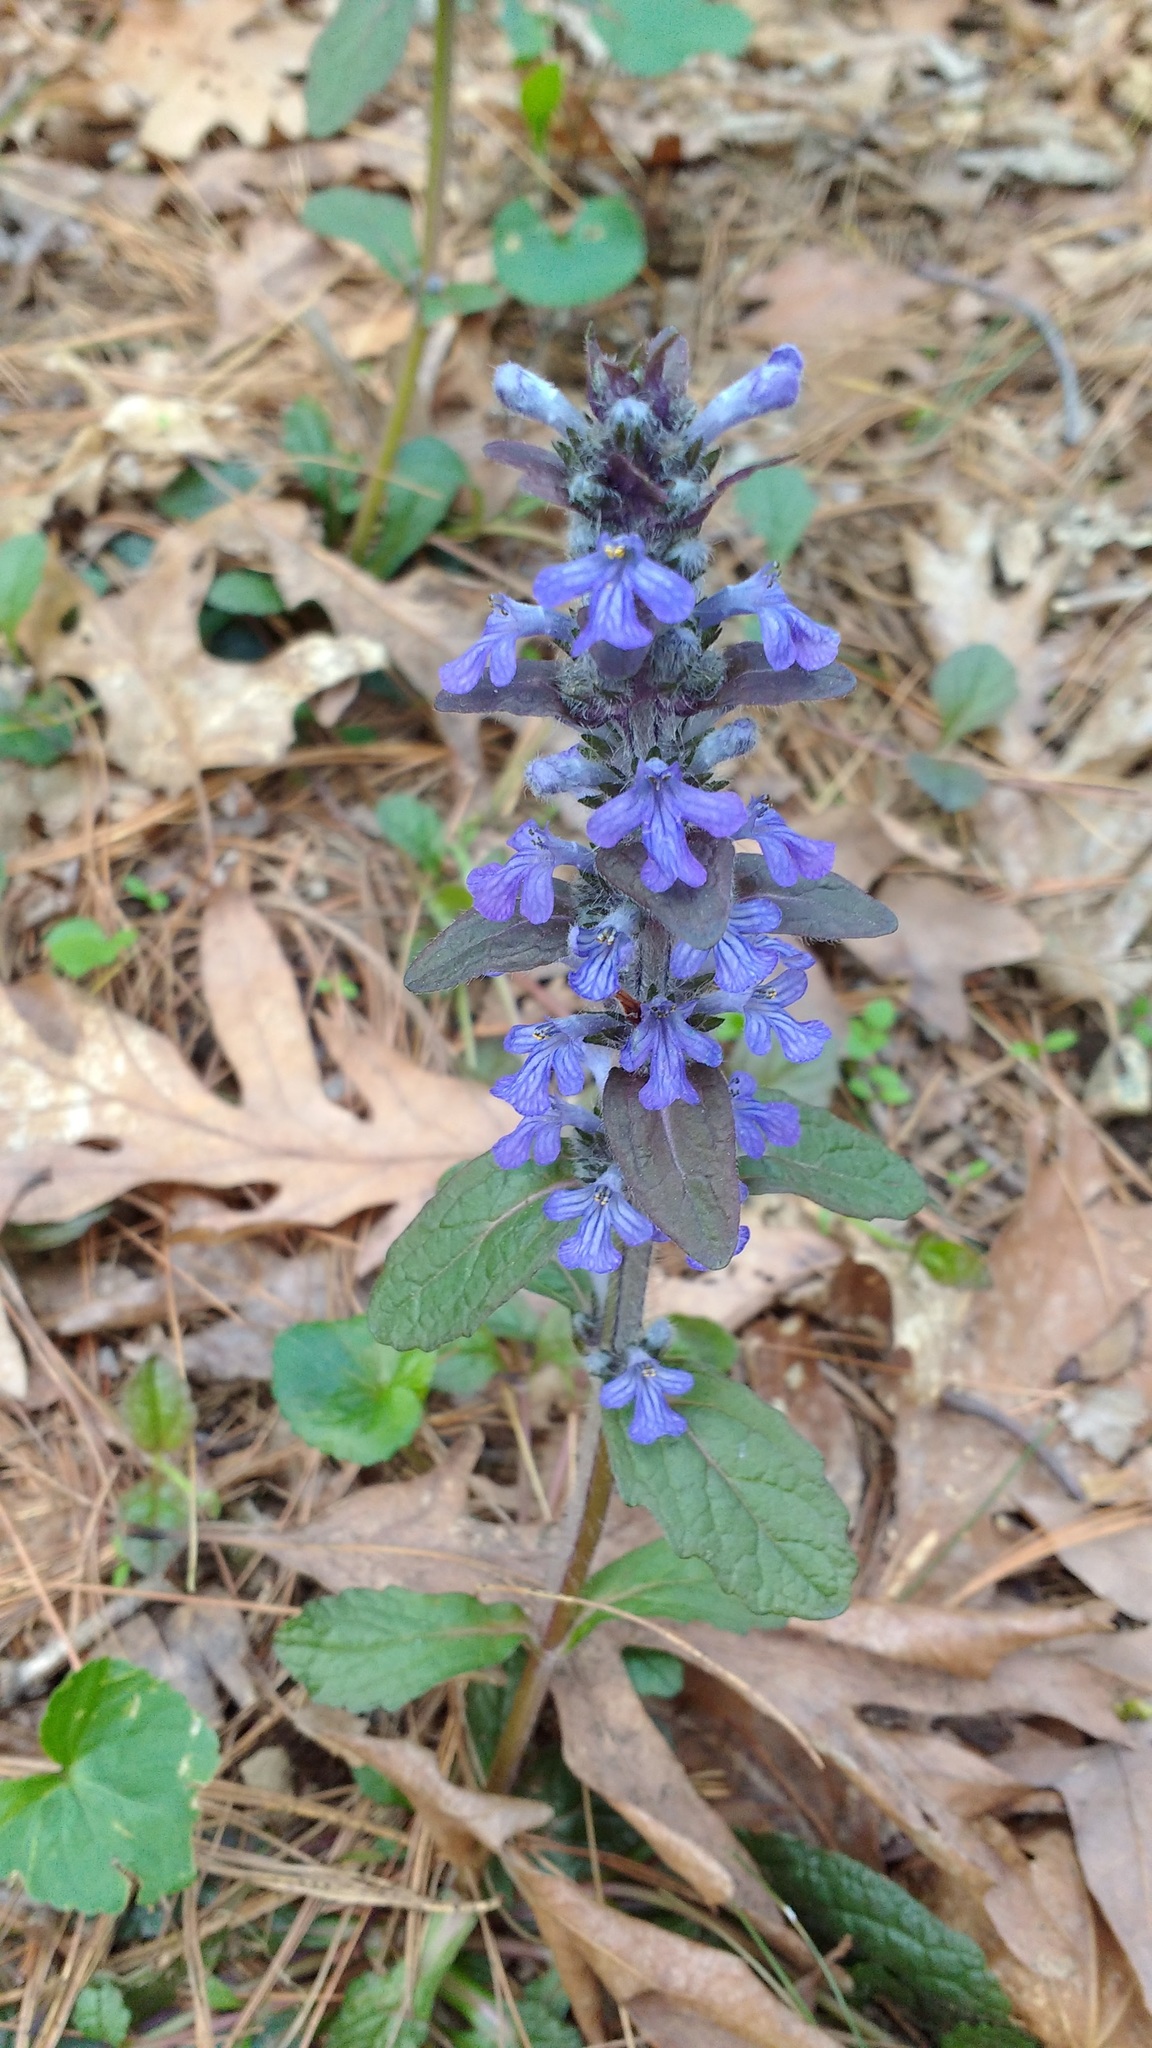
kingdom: Plantae
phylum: Tracheophyta
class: Magnoliopsida
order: Lamiales
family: Lamiaceae
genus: Ajuga
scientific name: Ajuga reptans
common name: Bugle
